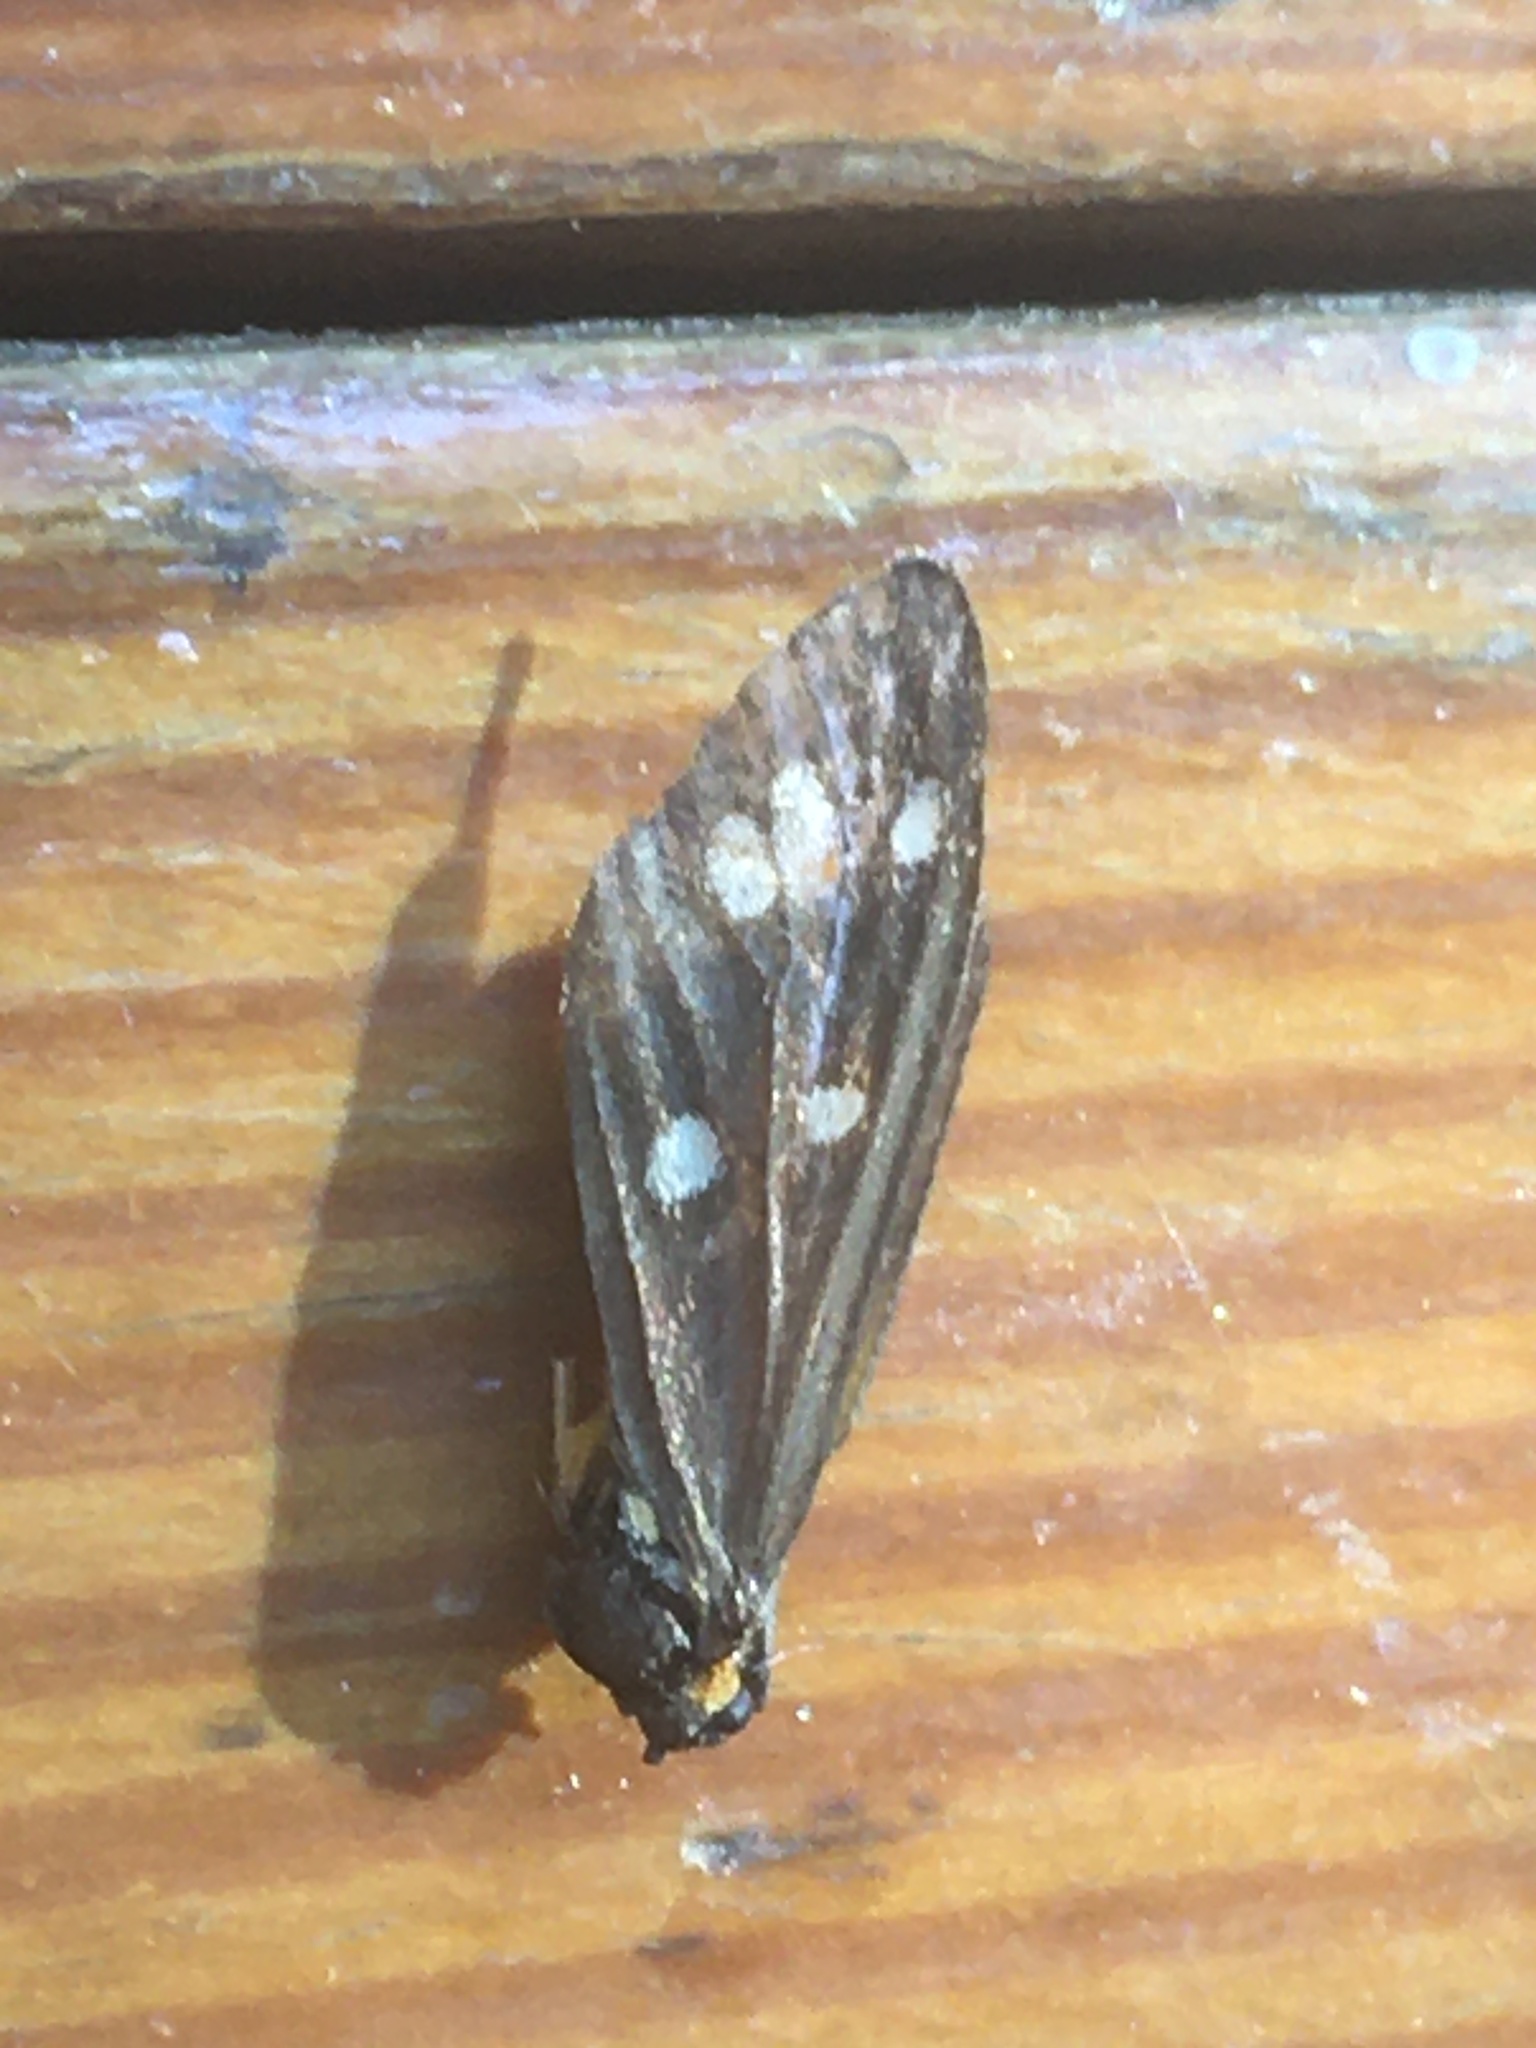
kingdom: Animalia
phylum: Arthropoda
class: Insecta
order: Lepidoptera
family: Erebidae
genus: Dysauxes
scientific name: Dysauxes punctata
